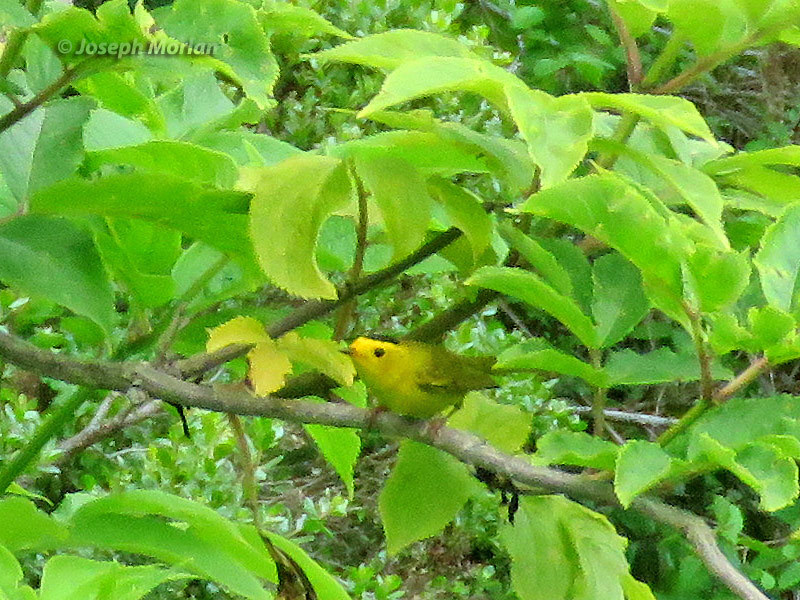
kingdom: Animalia
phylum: Chordata
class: Aves
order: Passeriformes
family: Parulidae
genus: Cardellina
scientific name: Cardellina pusilla
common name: Wilson's warbler
